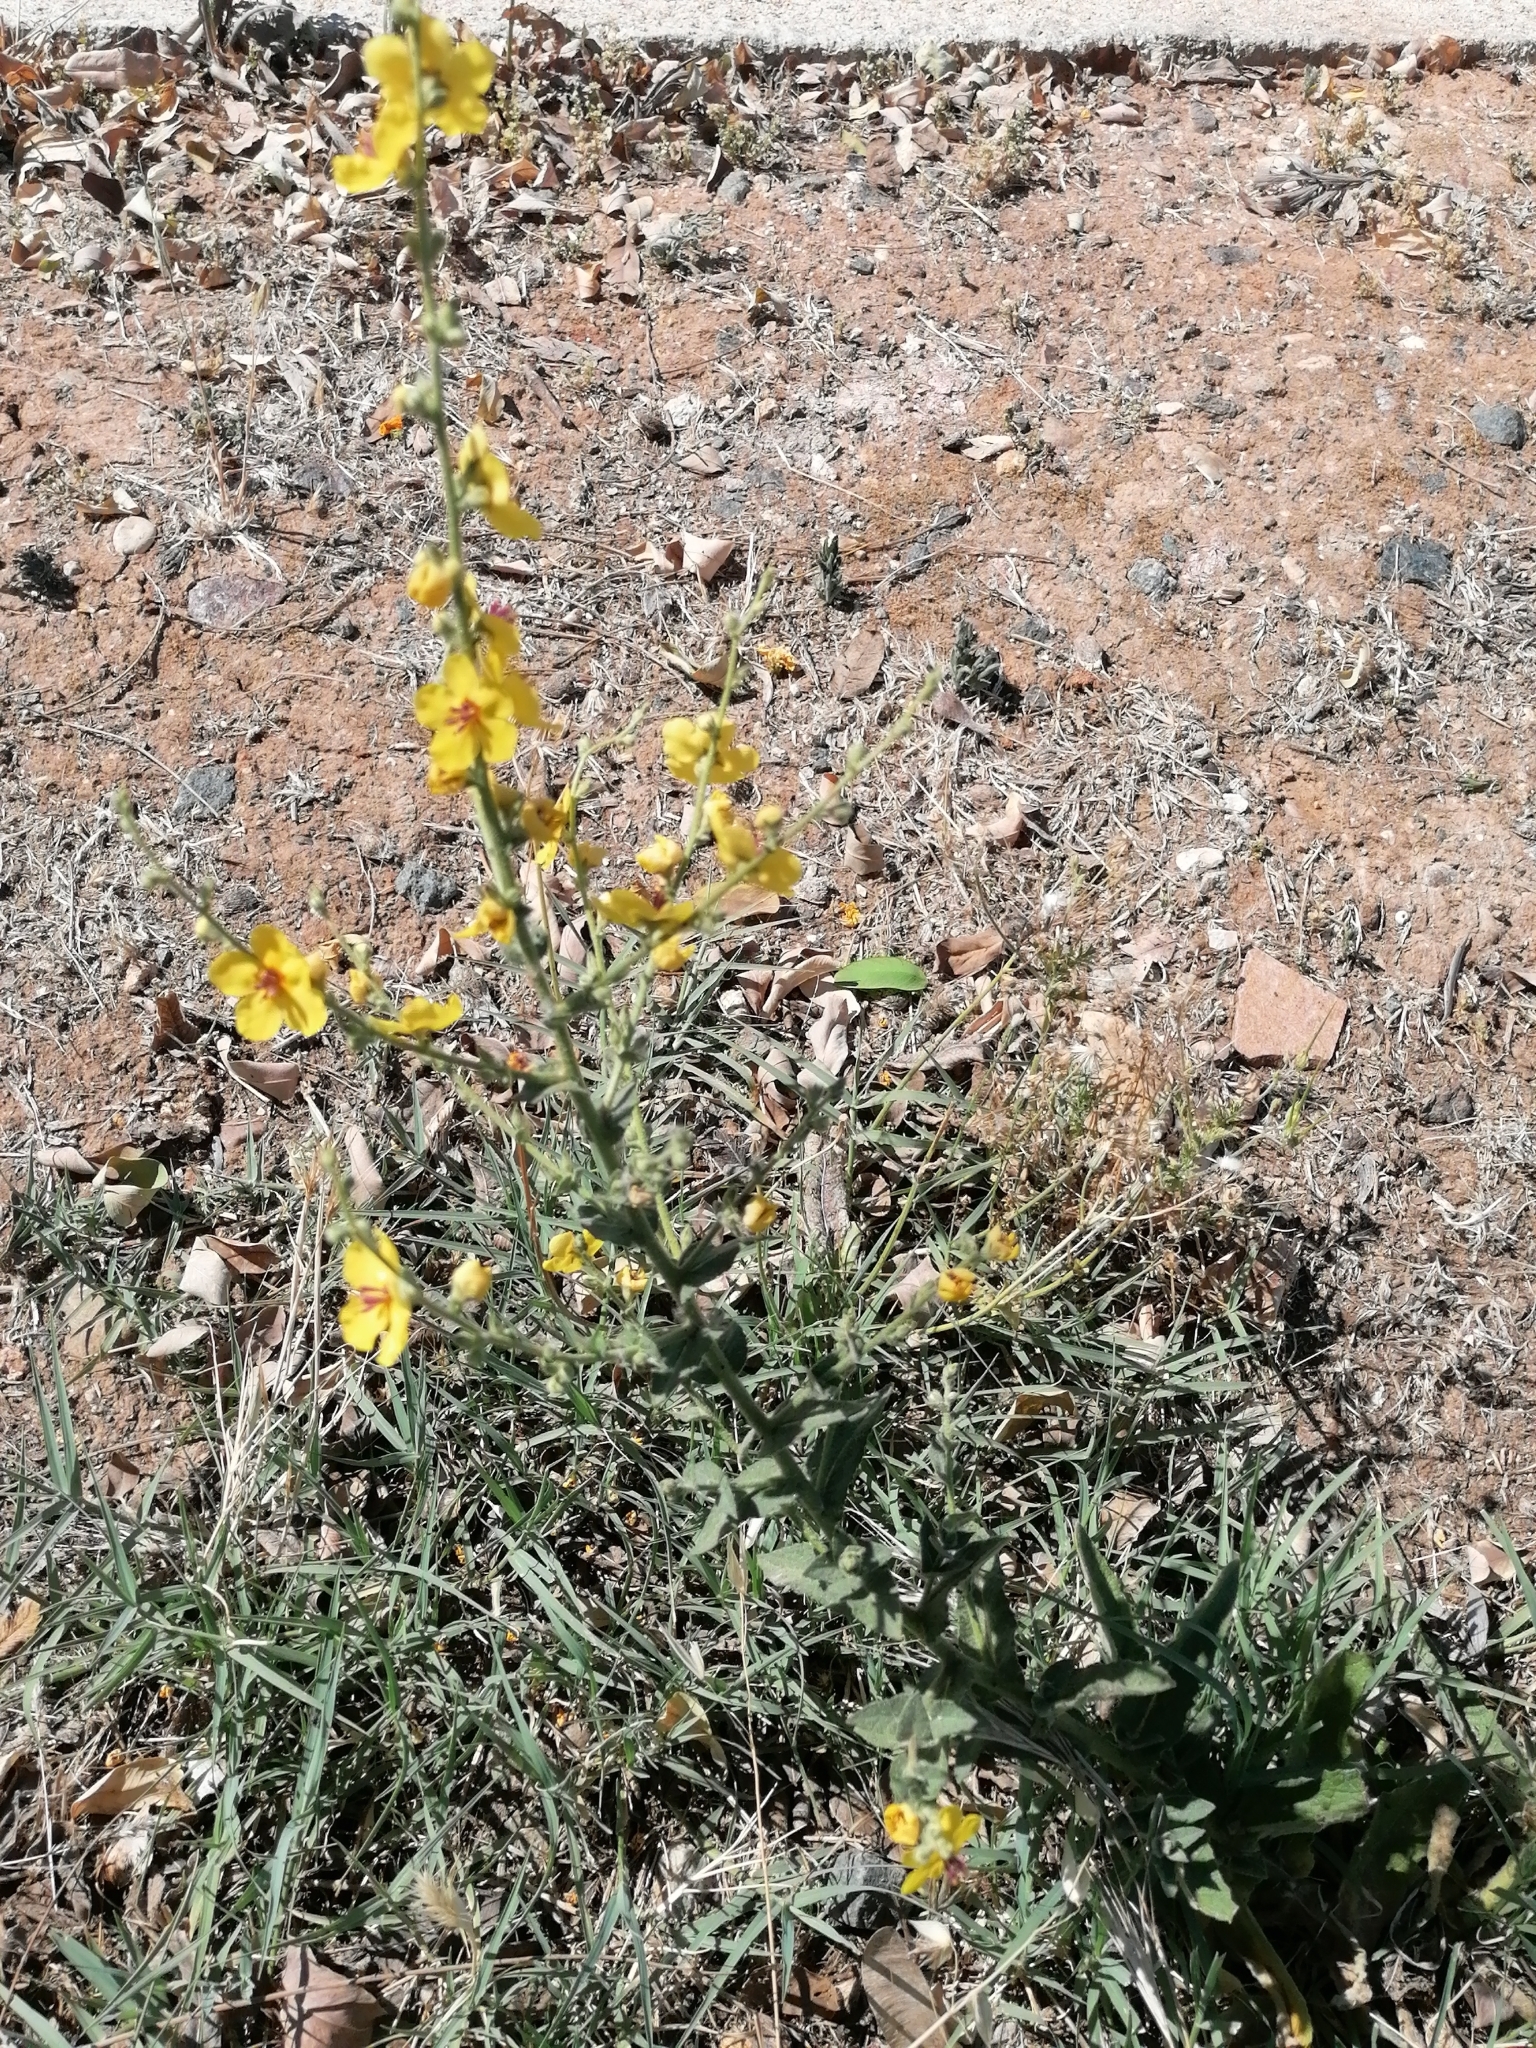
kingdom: Plantae
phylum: Tracheophyta
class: Magnoliopsida
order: Lamiales
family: Scrophulariaceae
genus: Verbascum
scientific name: Verbascum sinuatum
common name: Wavyleaf mullein
